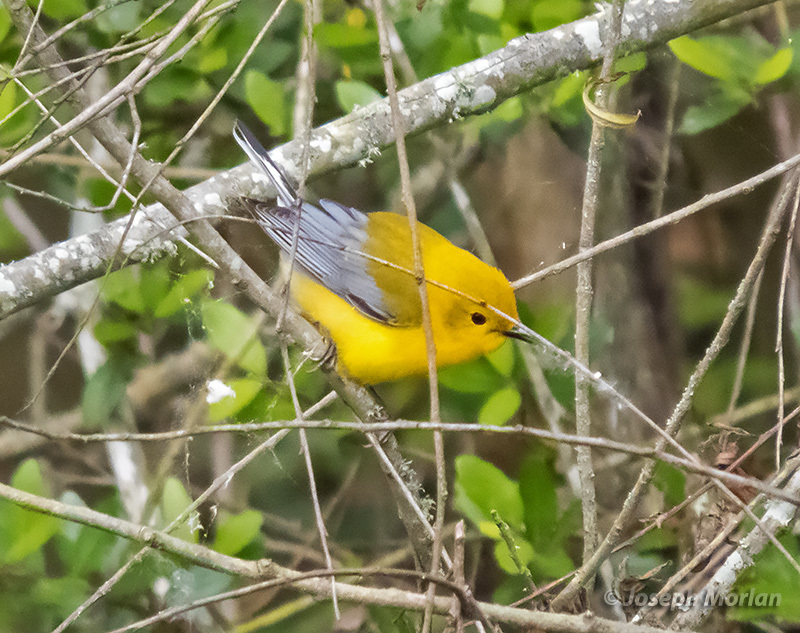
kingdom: Animalia
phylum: Chordata
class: Aves
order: Passeriformes
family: Parulidae
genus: Protonotaria
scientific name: Protonotaria citrea
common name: Prothonotary warbler
